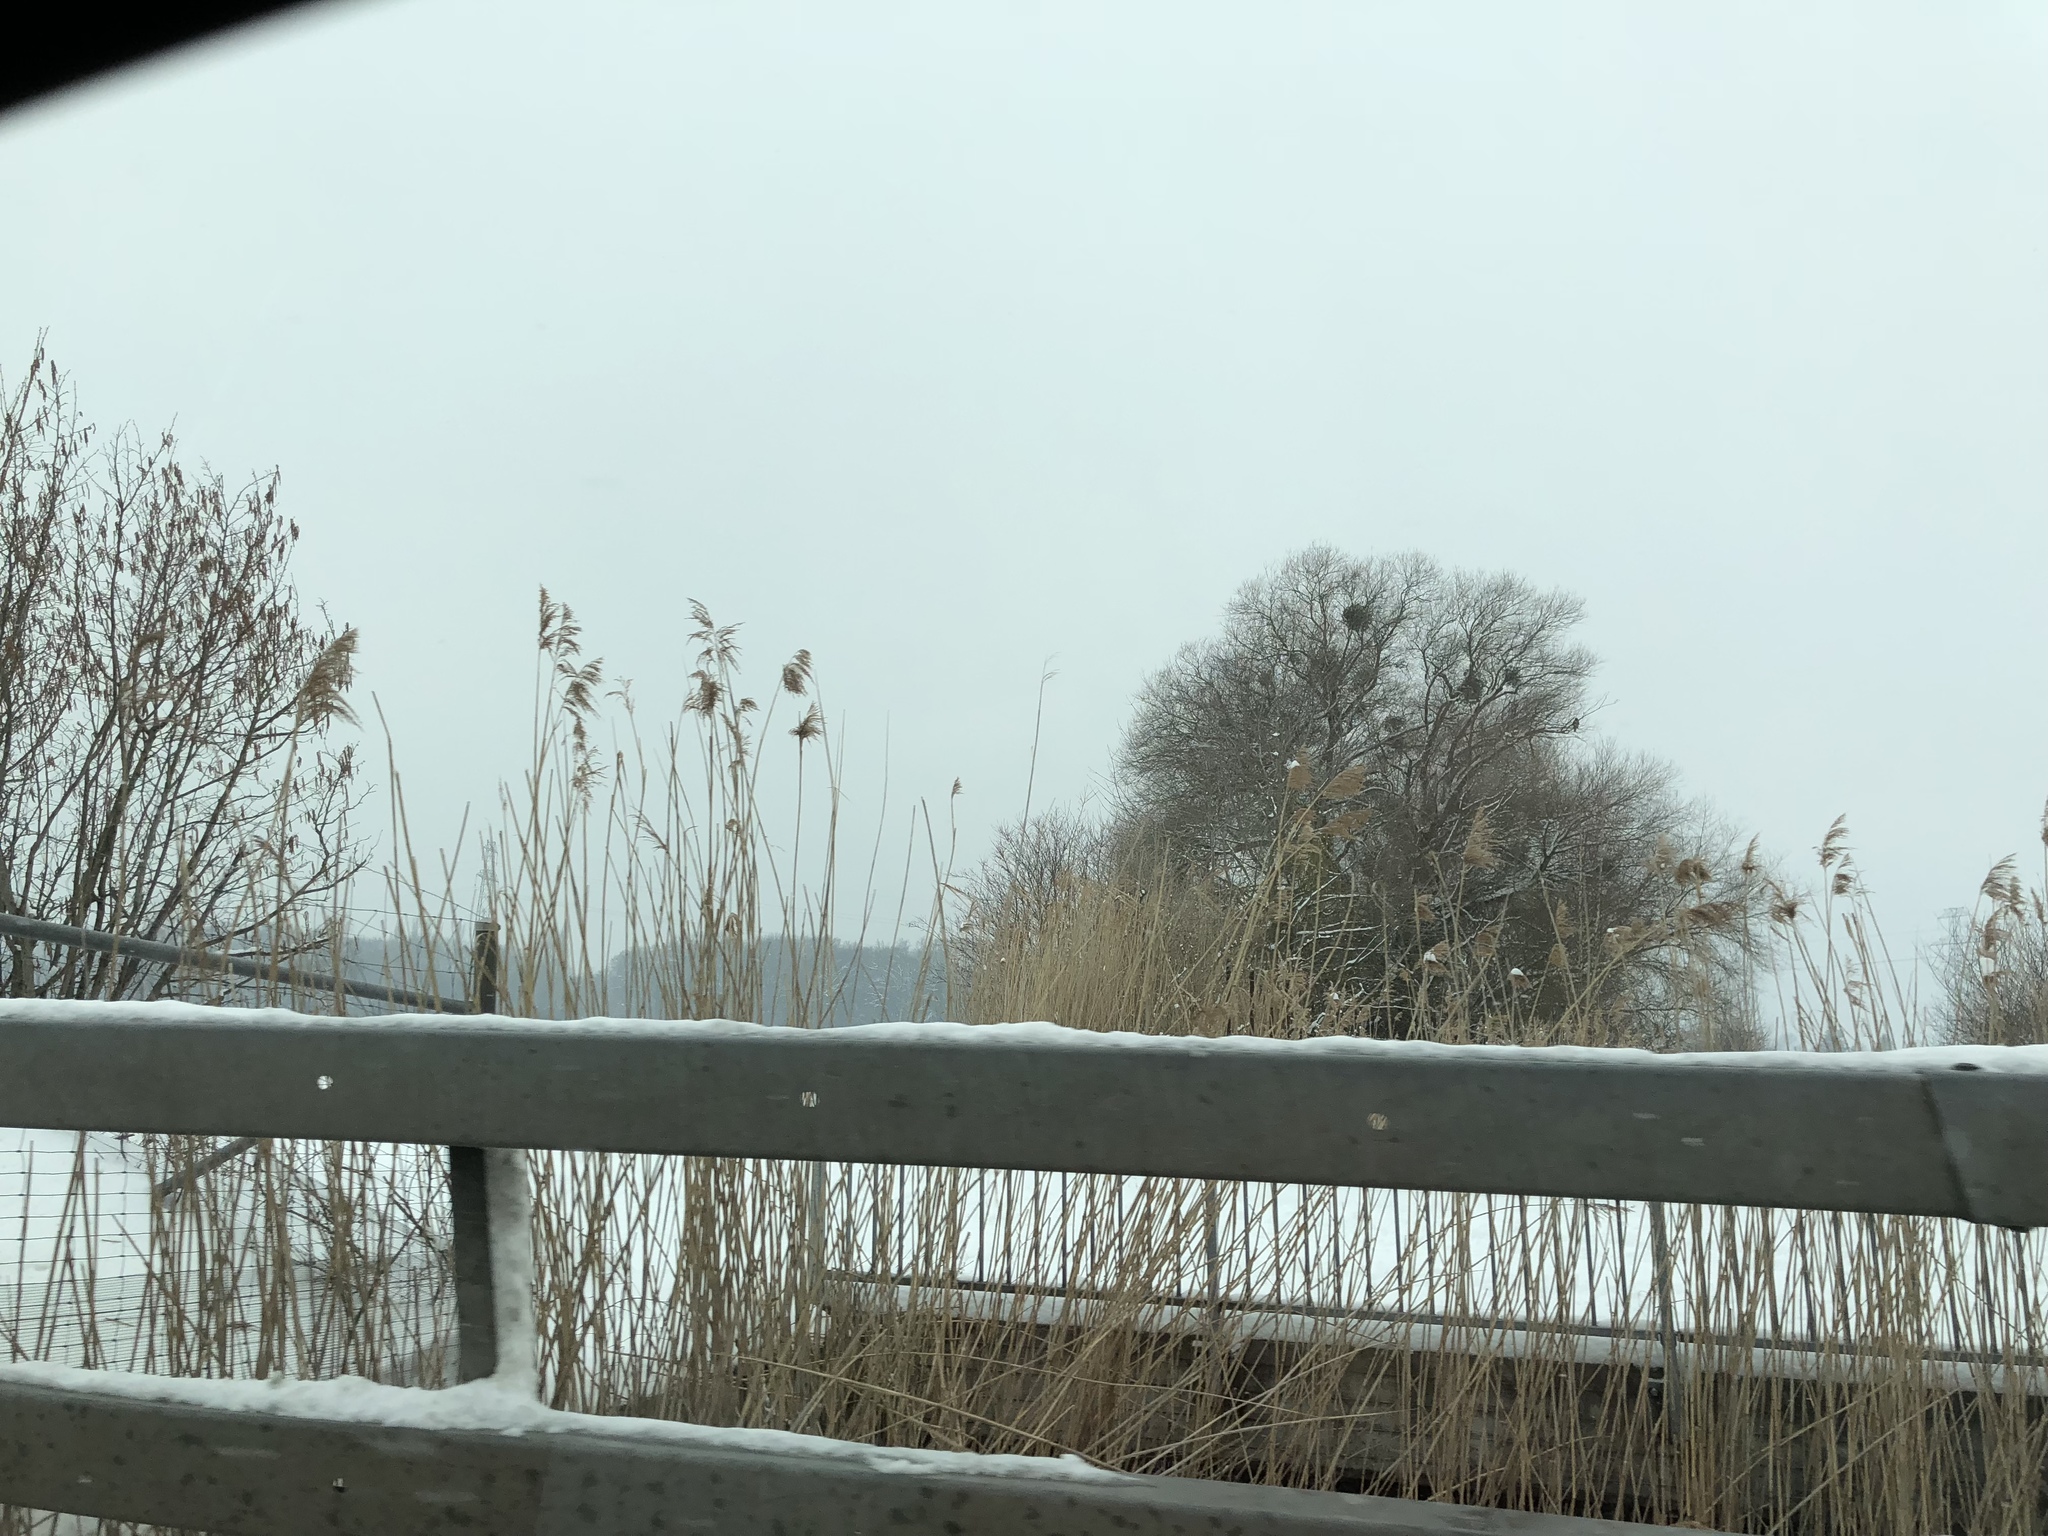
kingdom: Plantae
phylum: Tracheophyta
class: Liliopsida
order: Poales
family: Poaceae
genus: Phragmites
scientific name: Phragmites australis
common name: Common reed
